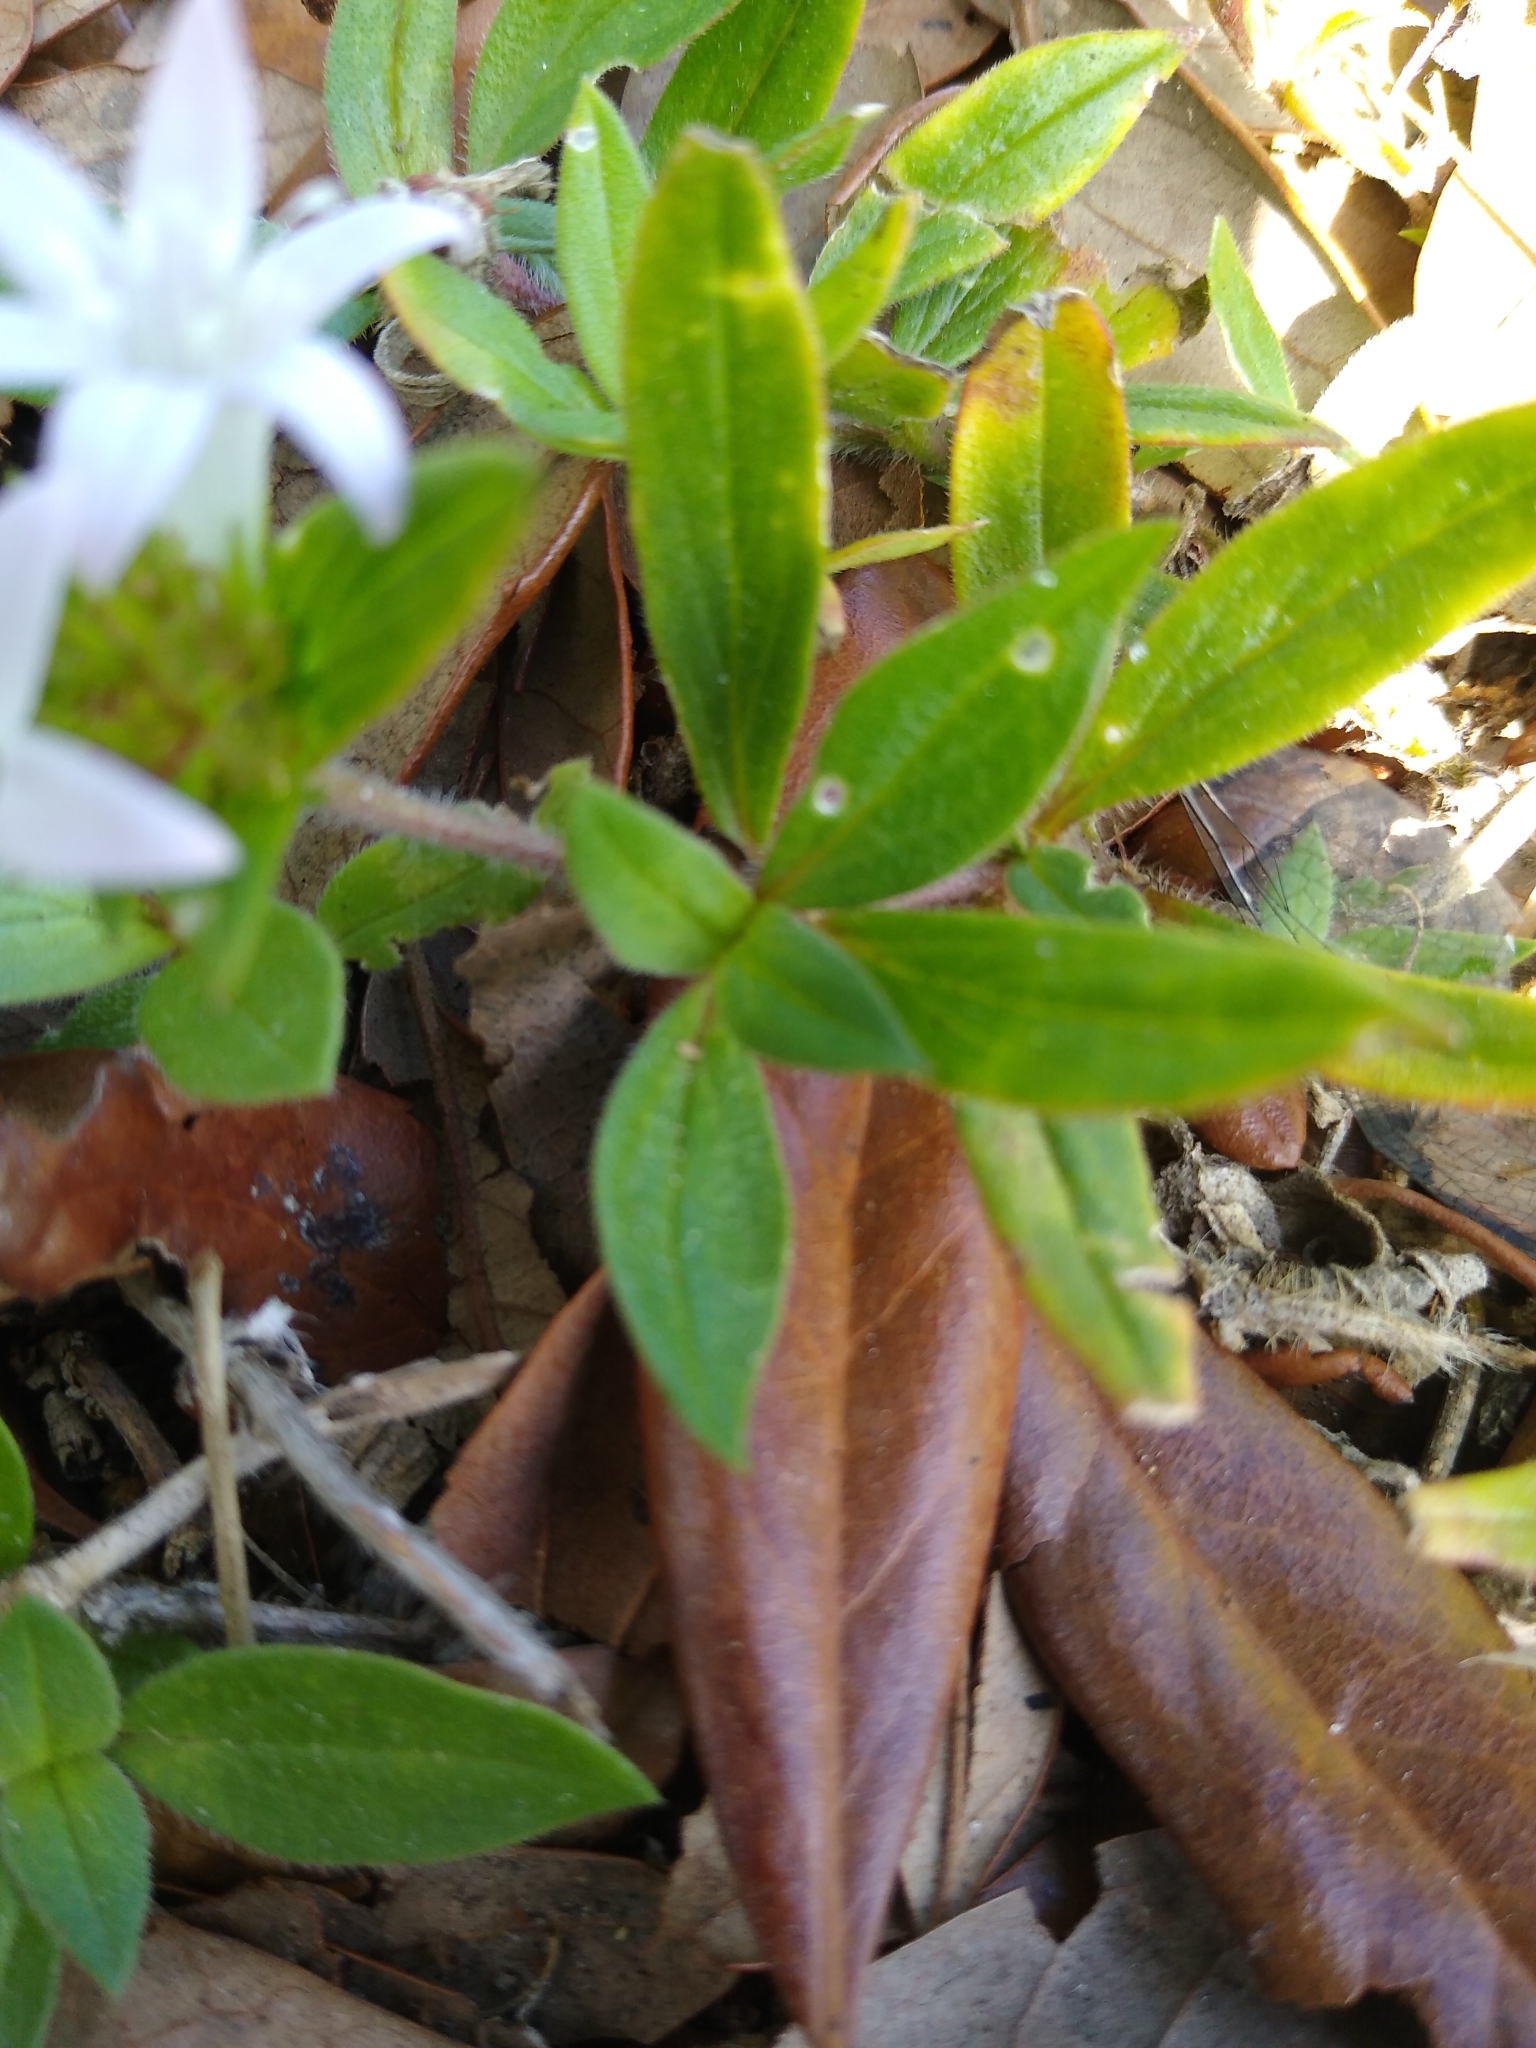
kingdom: Plantae
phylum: Tracheophyta
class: Magnoliopsida
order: Gentianales
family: Rubiaceae
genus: Richardia
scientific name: Richardia grandiflora
